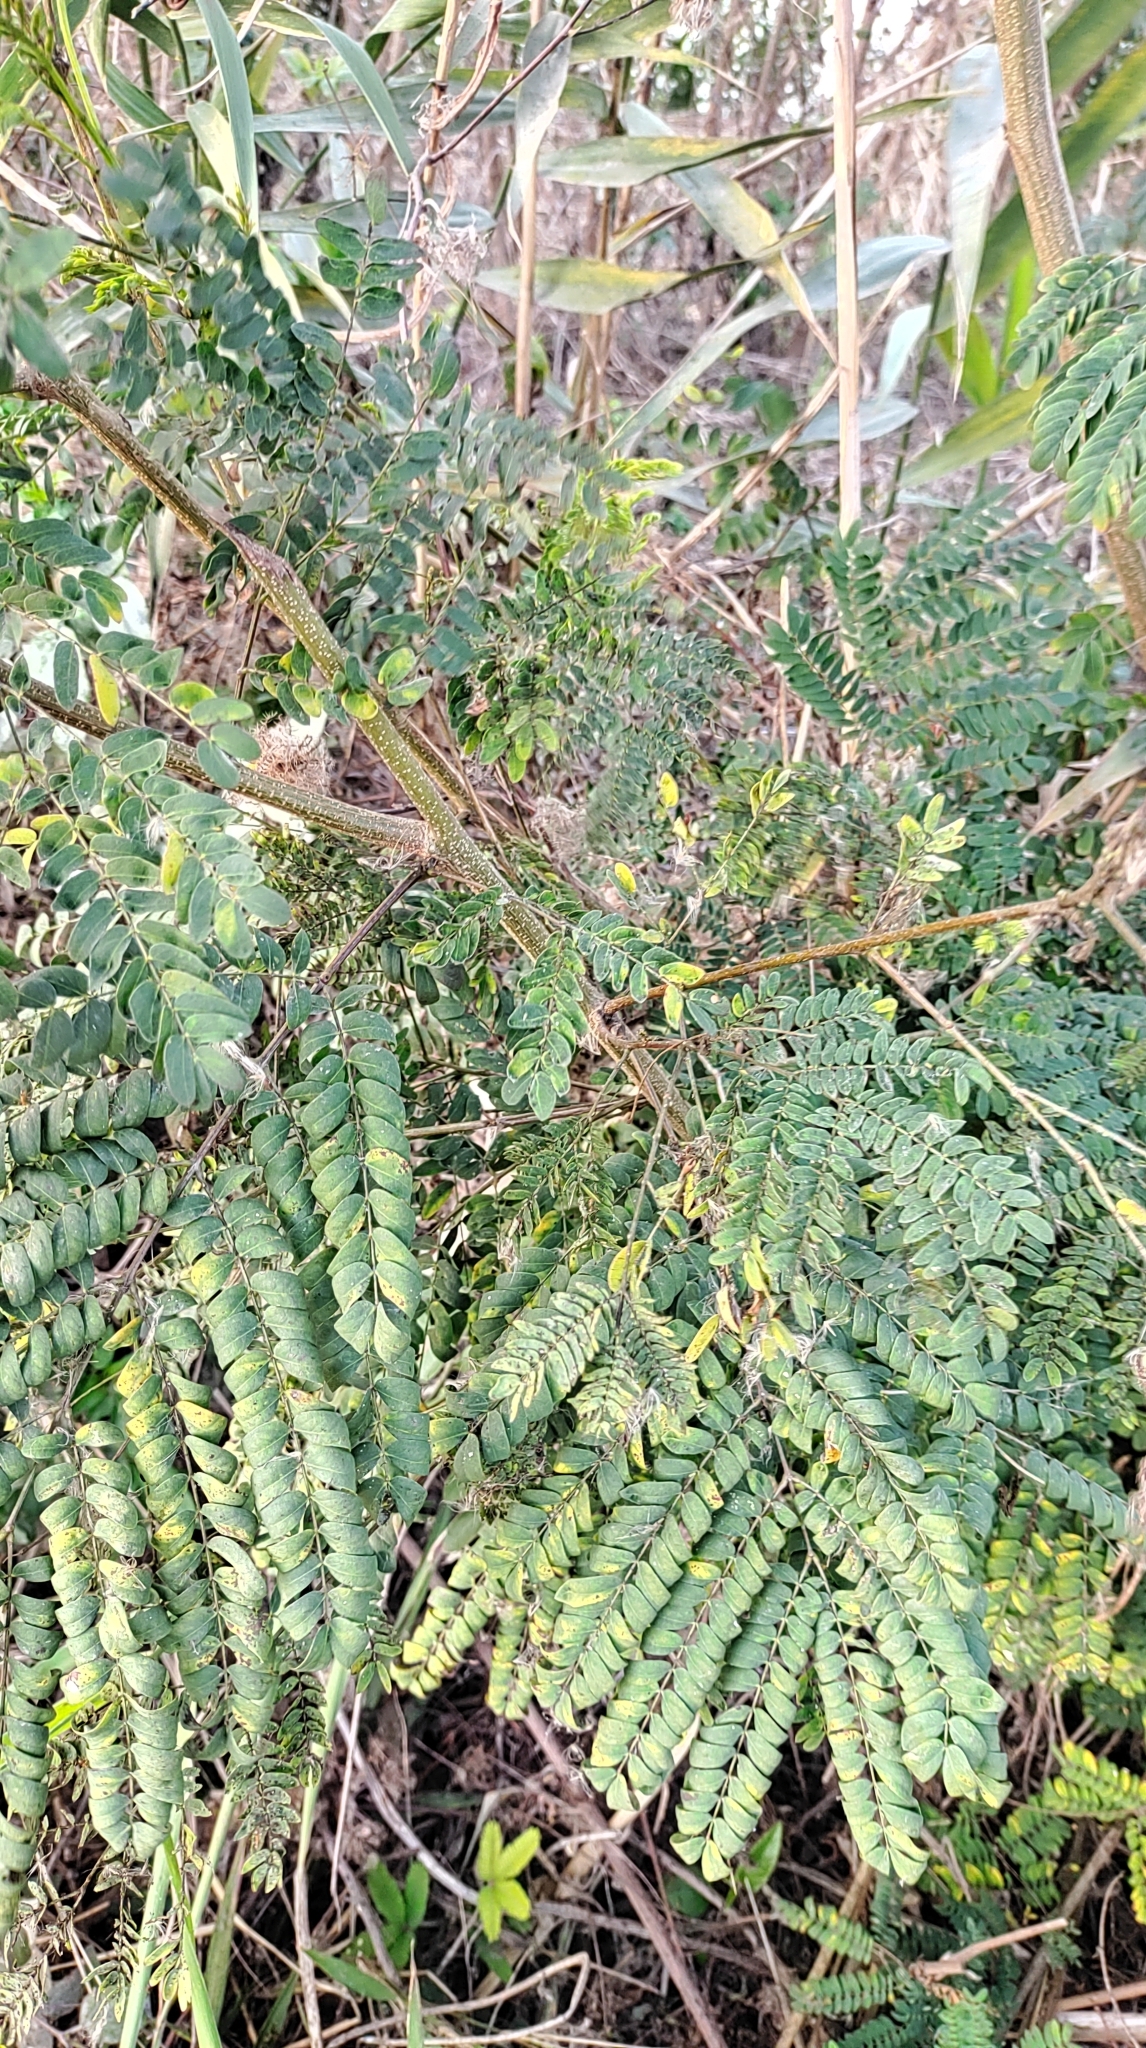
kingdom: Plantae
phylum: Tracheophyta
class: Magnoliopsida
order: Fabales
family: Fabaceae
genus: Leucaena
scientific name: Leucaena leucocephala
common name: White leadtree
